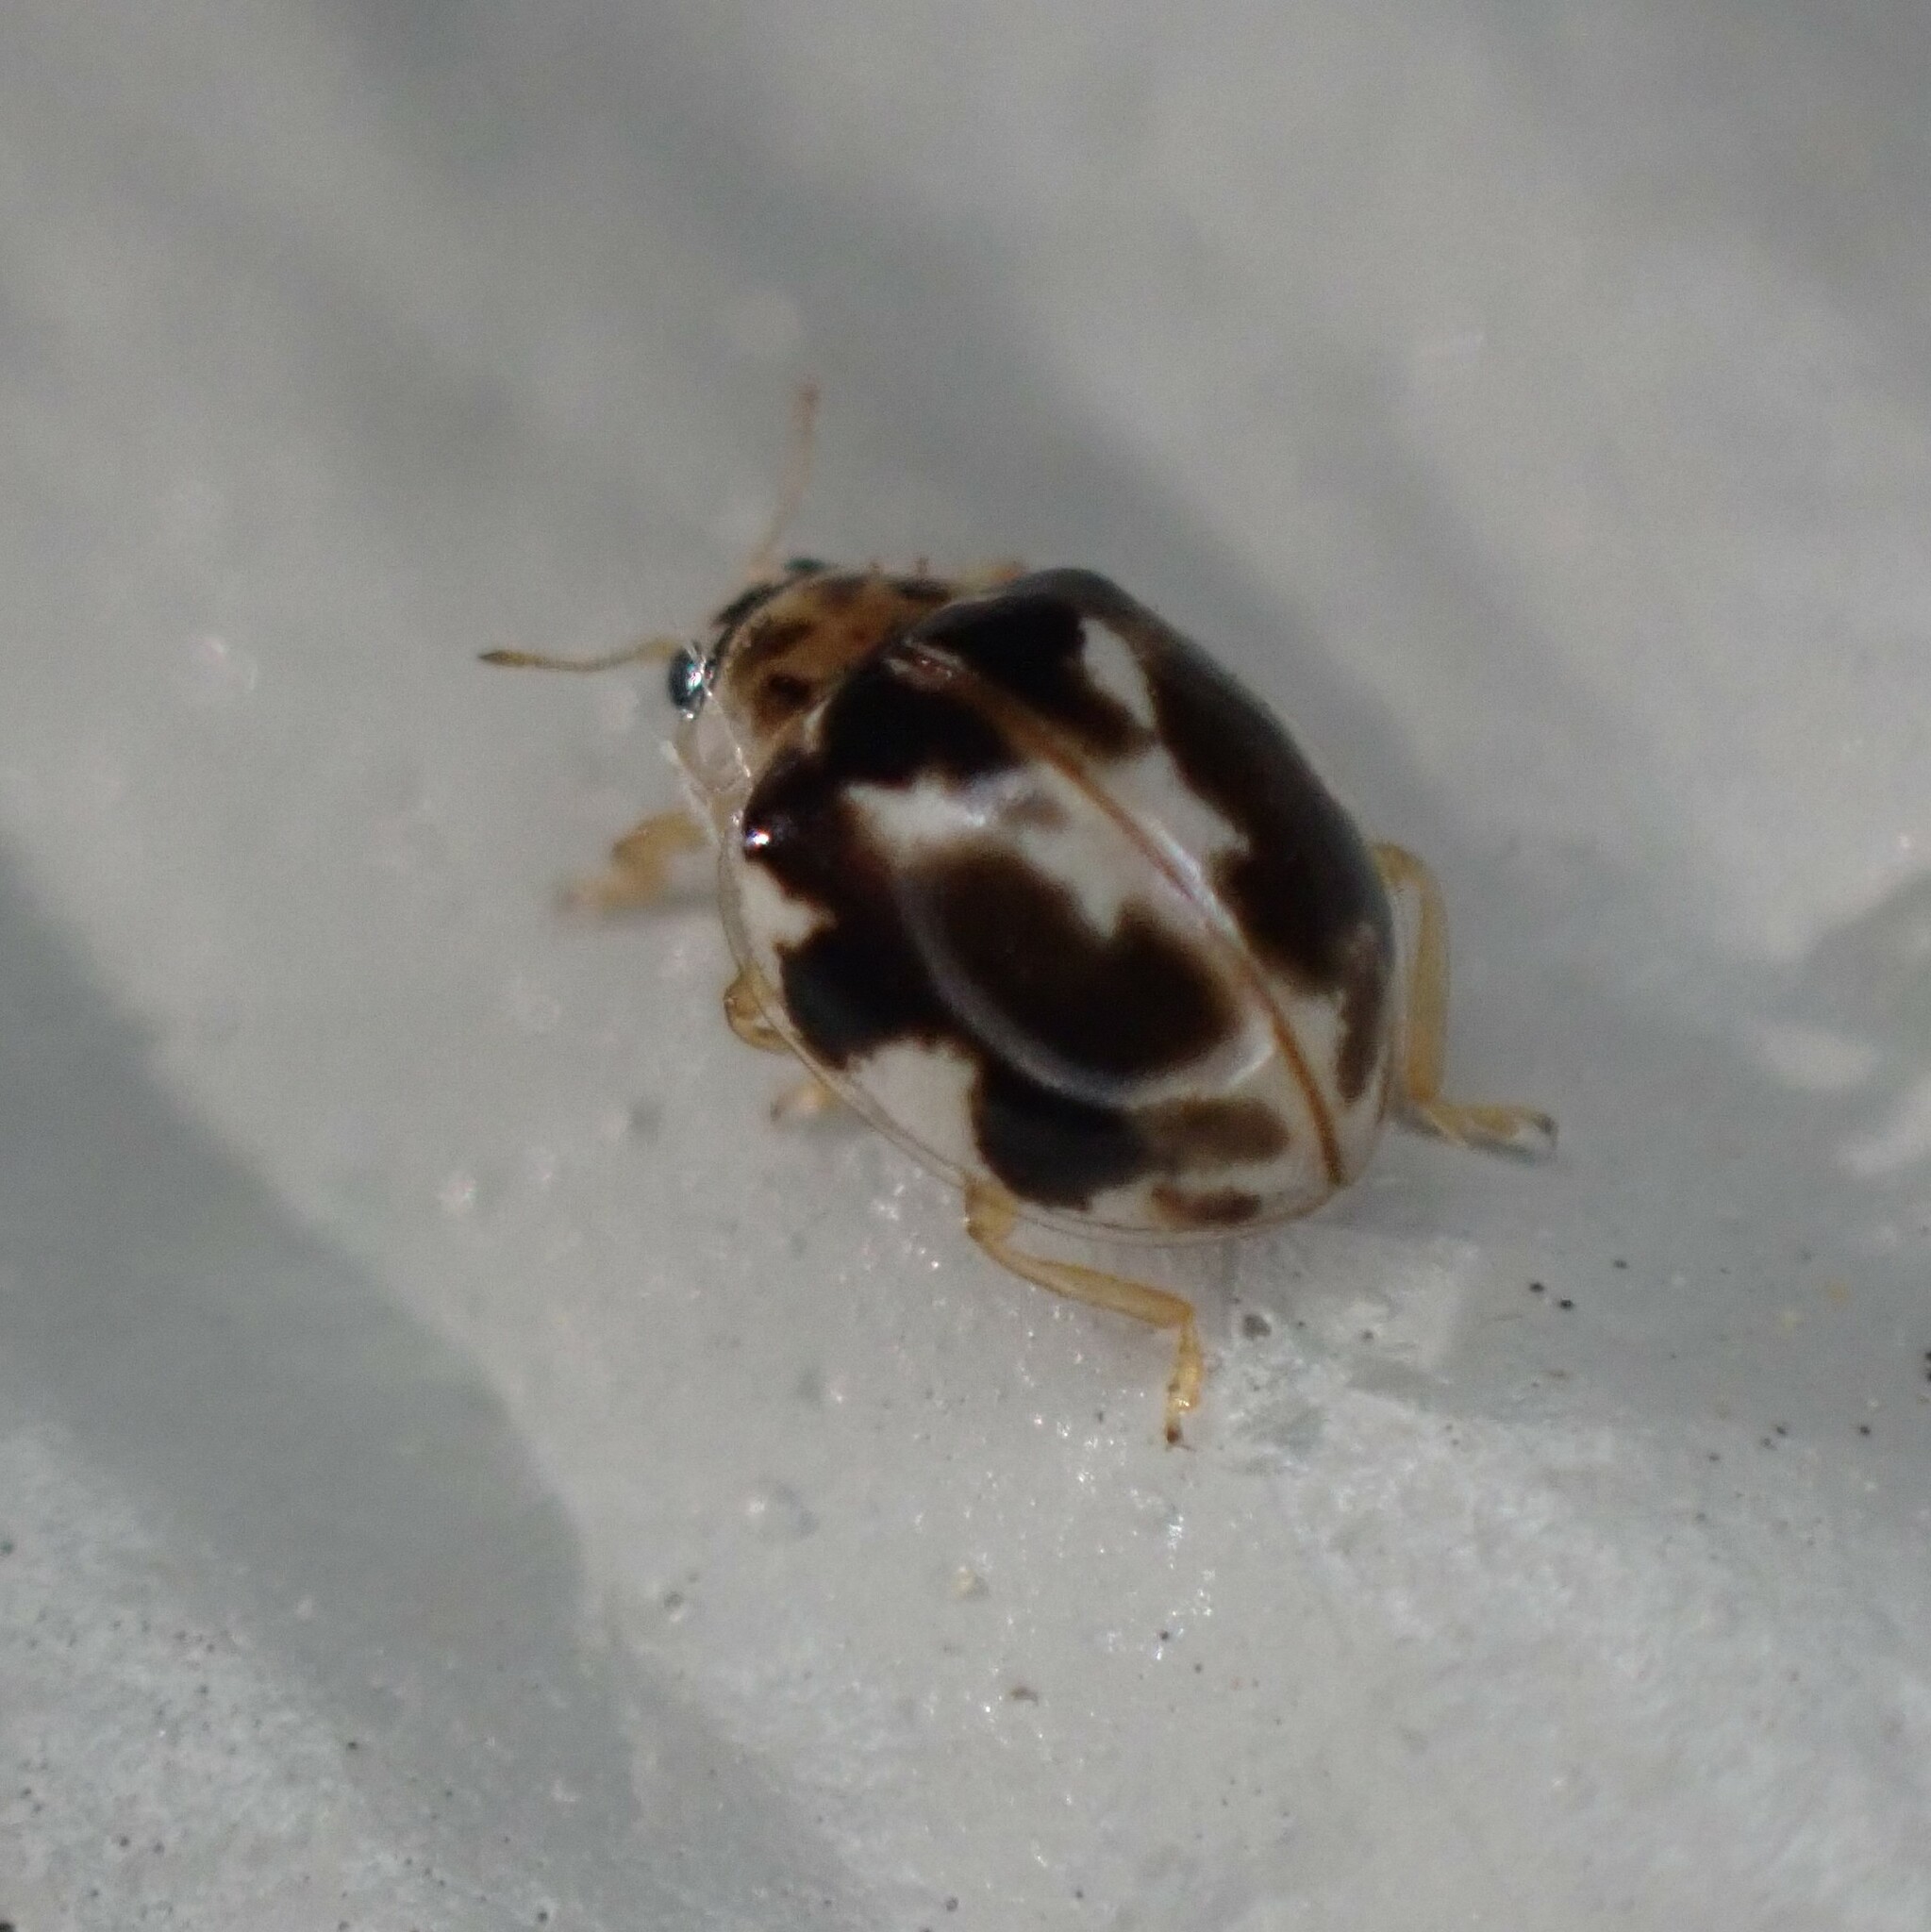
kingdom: Animalia
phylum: Arthropoda
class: Insecta
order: Coleoptera
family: Coccinellidae
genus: Psyllobora
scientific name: Psyllobora vigintimaculata
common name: Ladybird beetle
